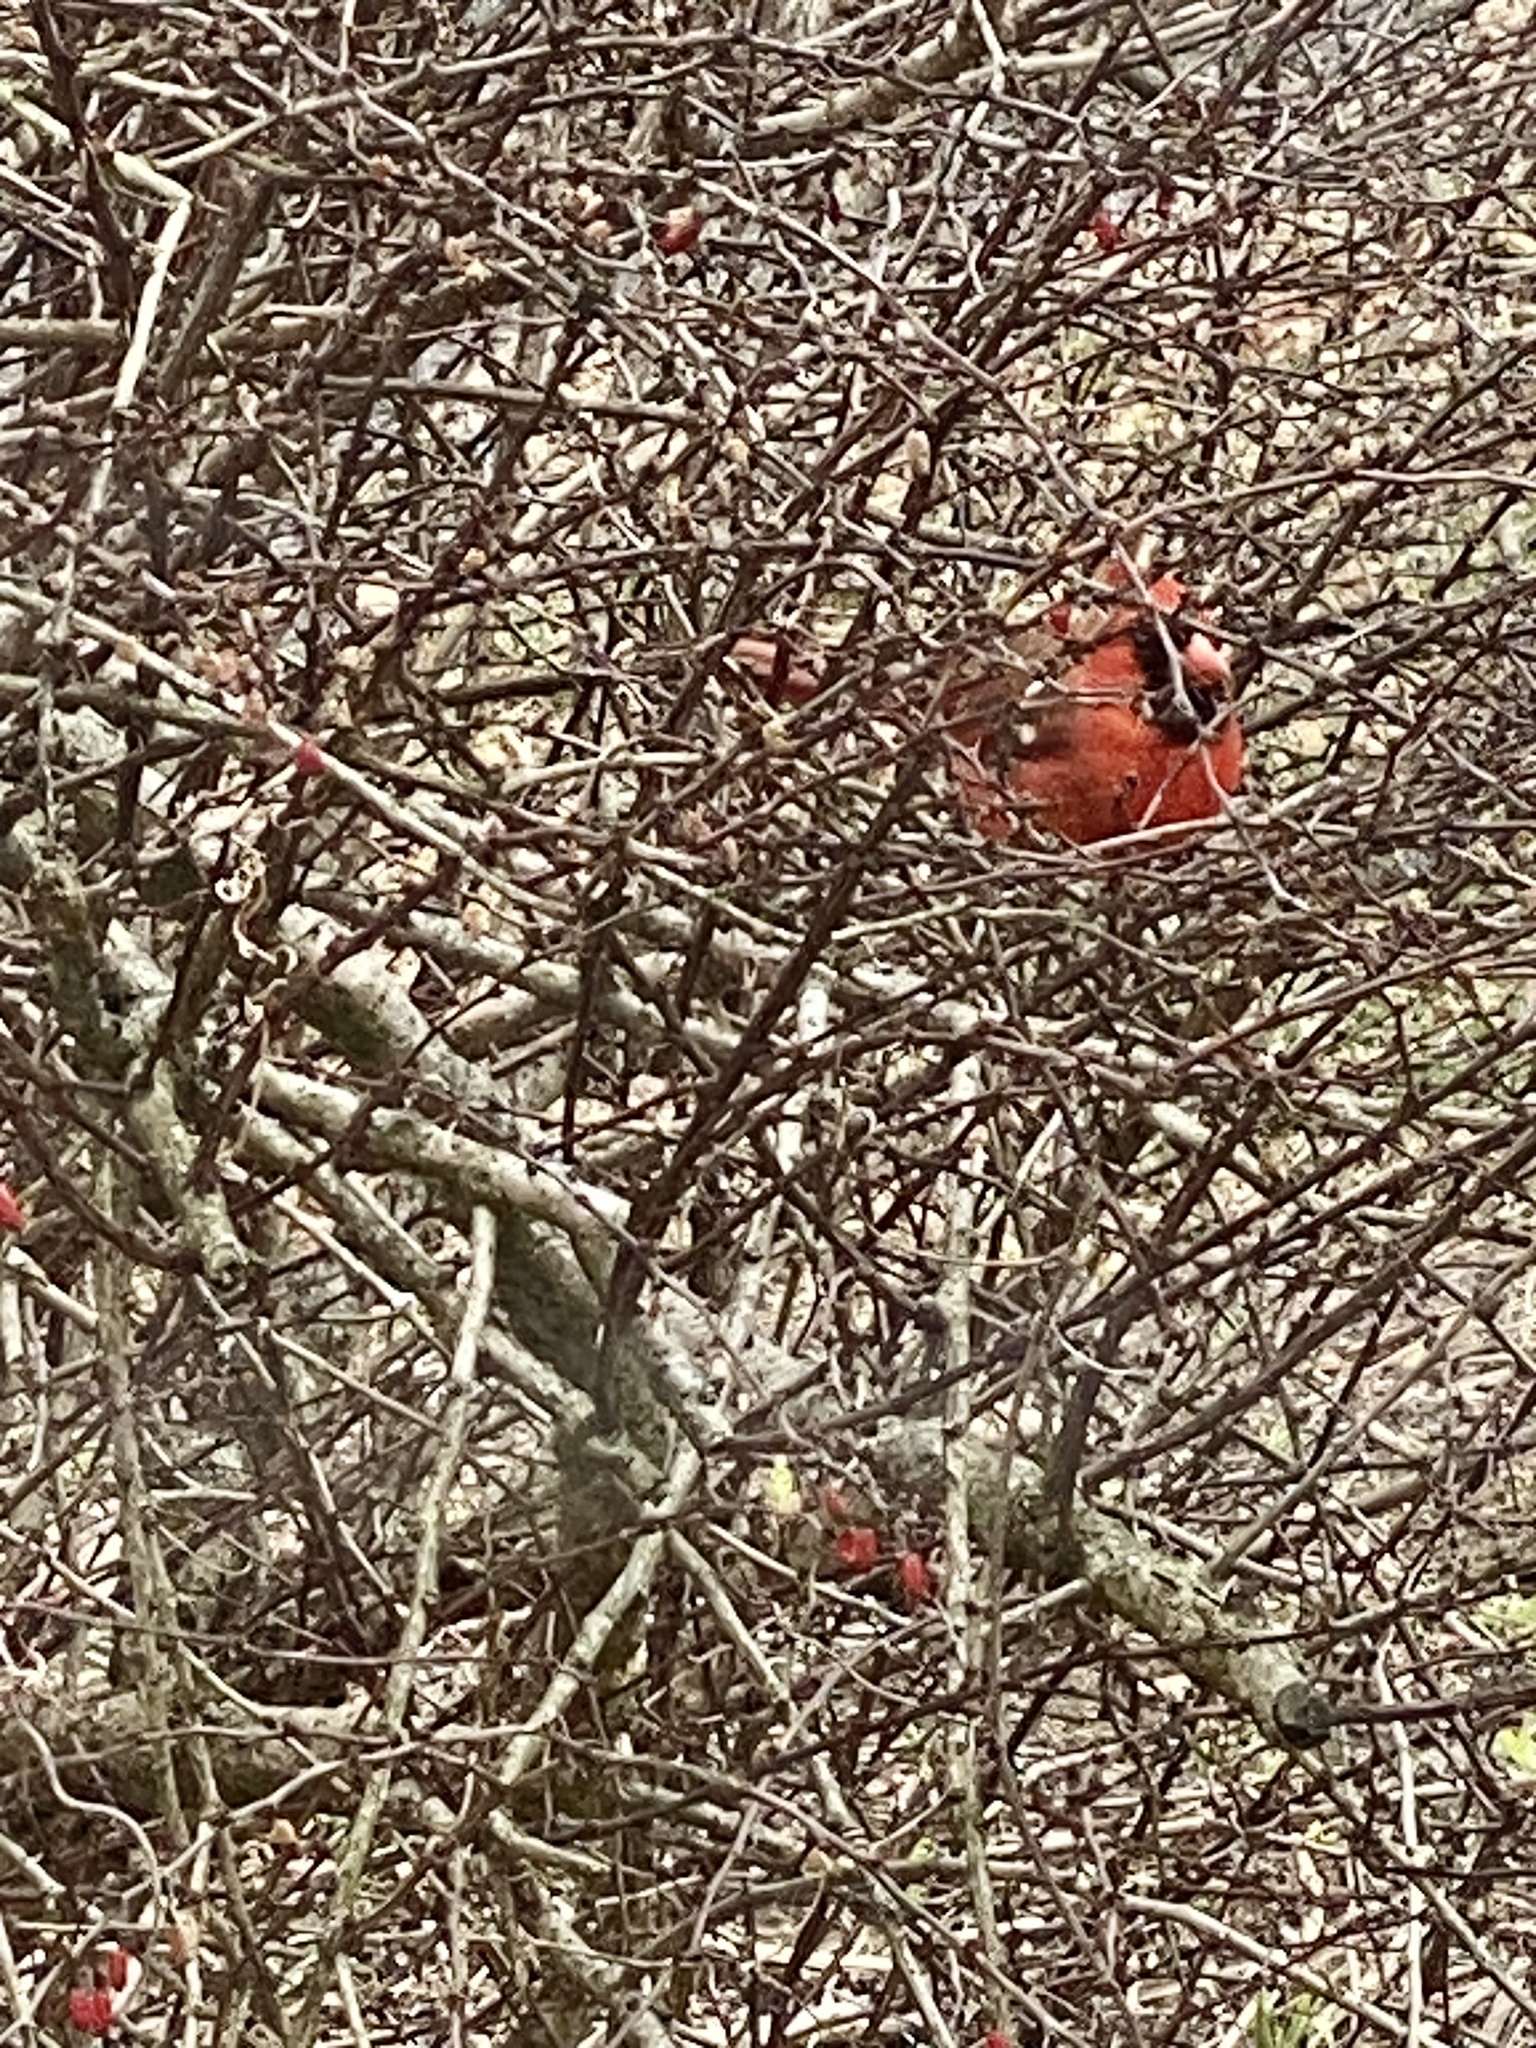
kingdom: Animalia
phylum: Chordata
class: Aves
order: Passeriformes
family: Cardinalidae
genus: Cardinalis
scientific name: Cardinalis cardinalis
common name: Northern cardinal
